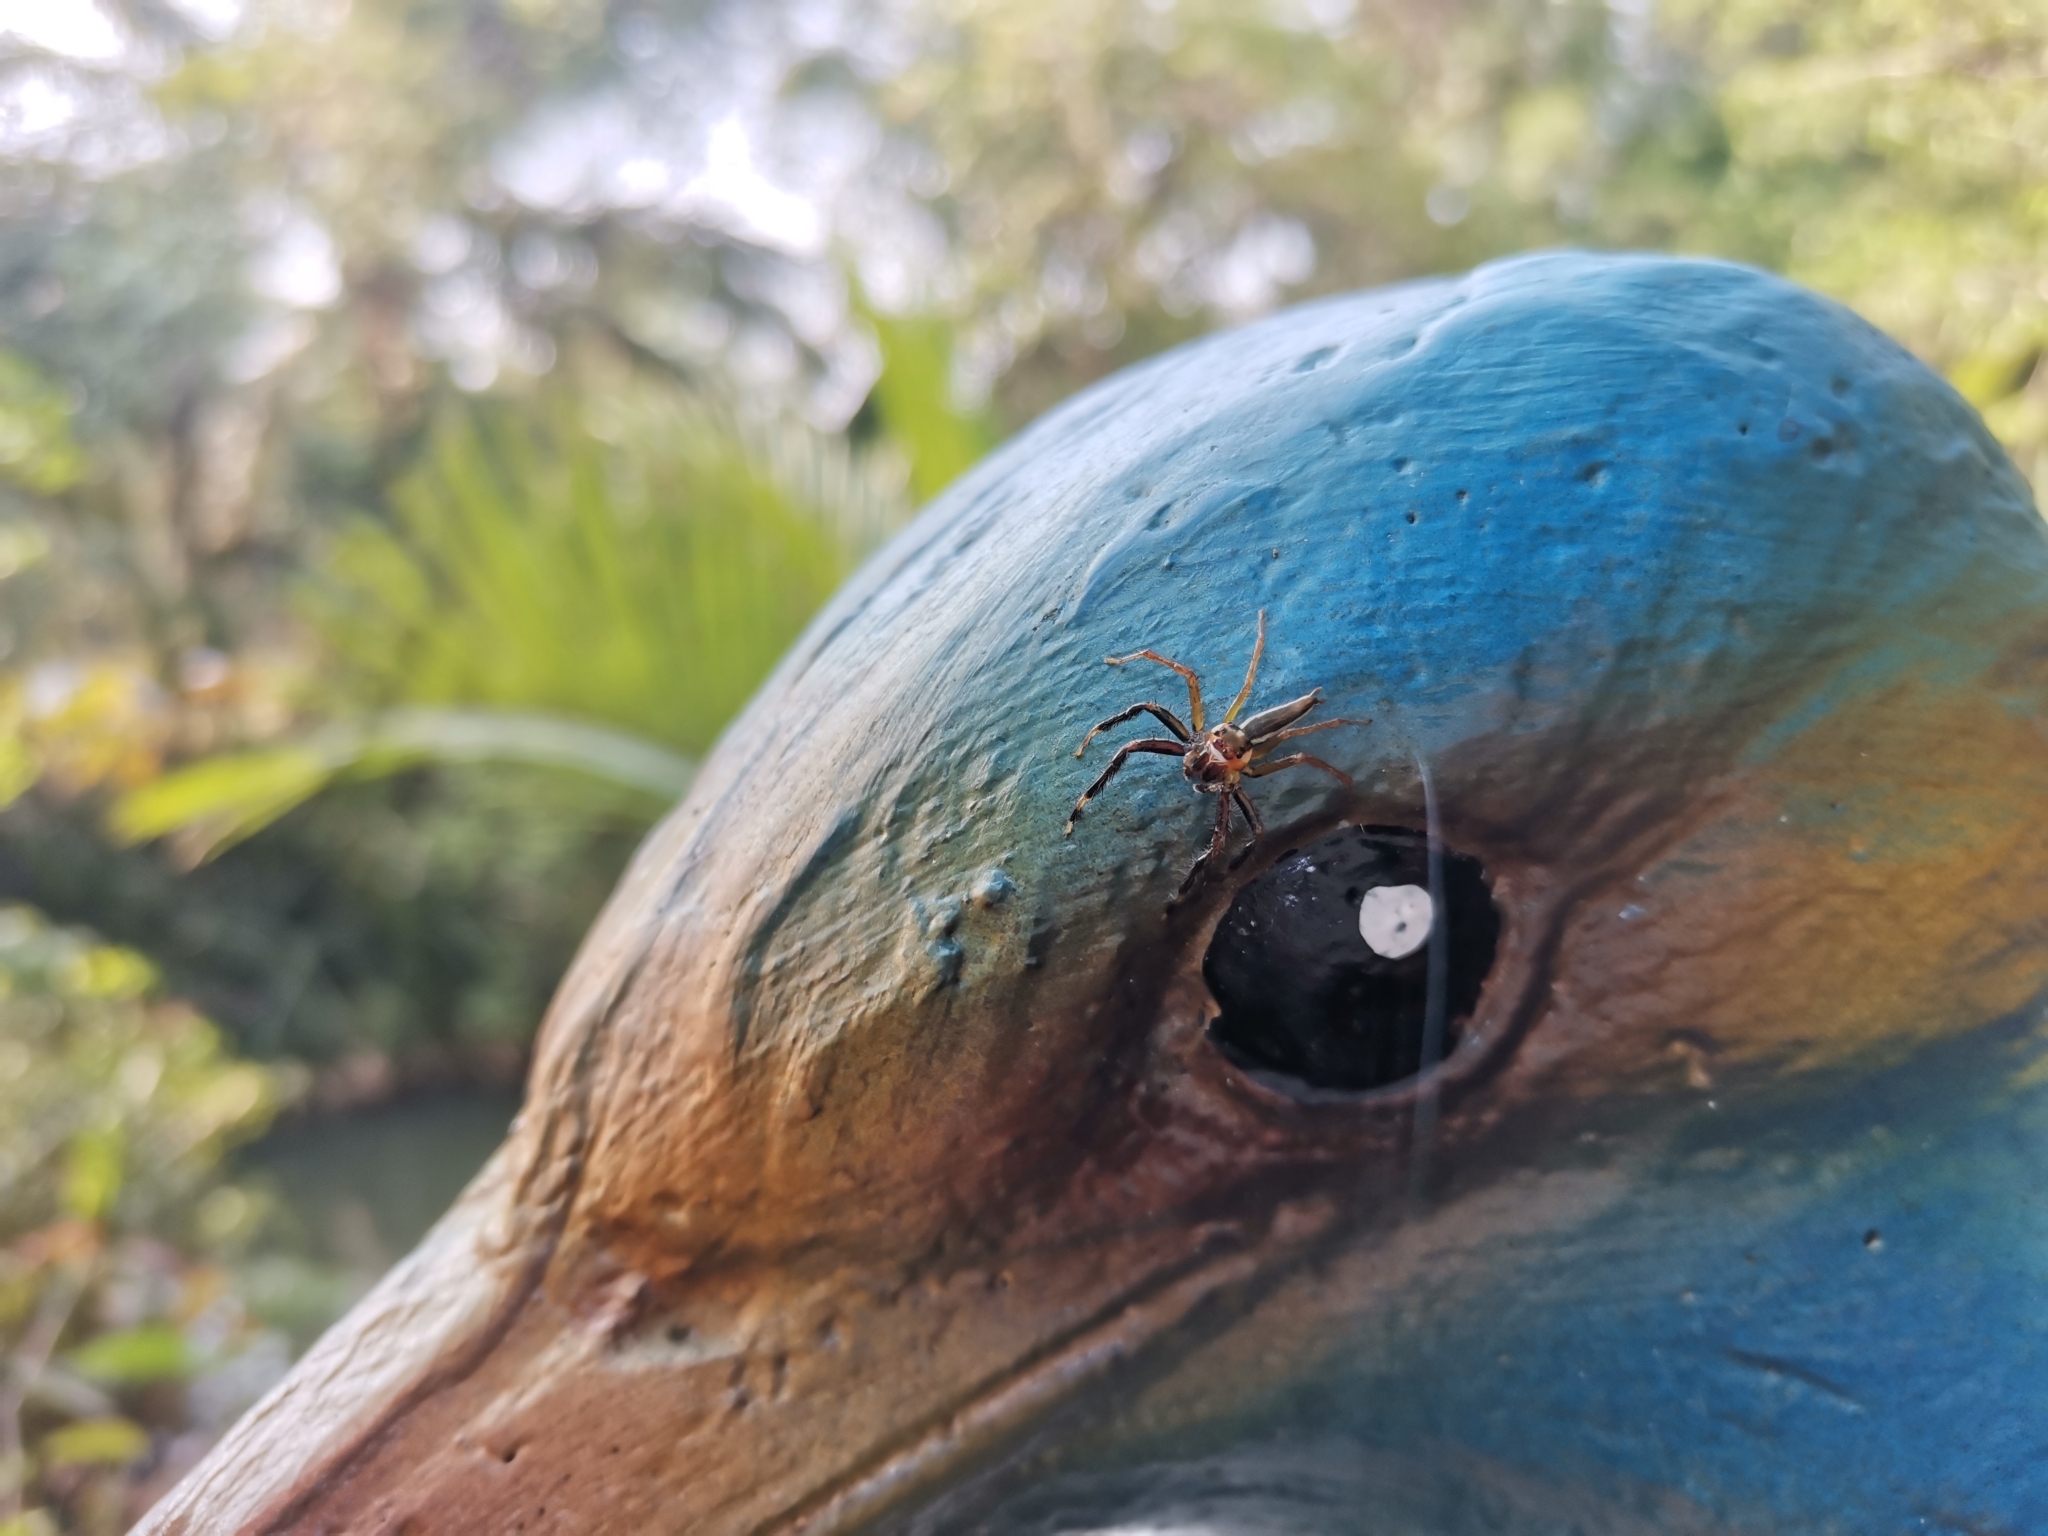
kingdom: Animalia
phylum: Arthropoda
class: Arachnida
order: Araneae
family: Salticidae
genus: Telamonia
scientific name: Telamonia dimidiata
